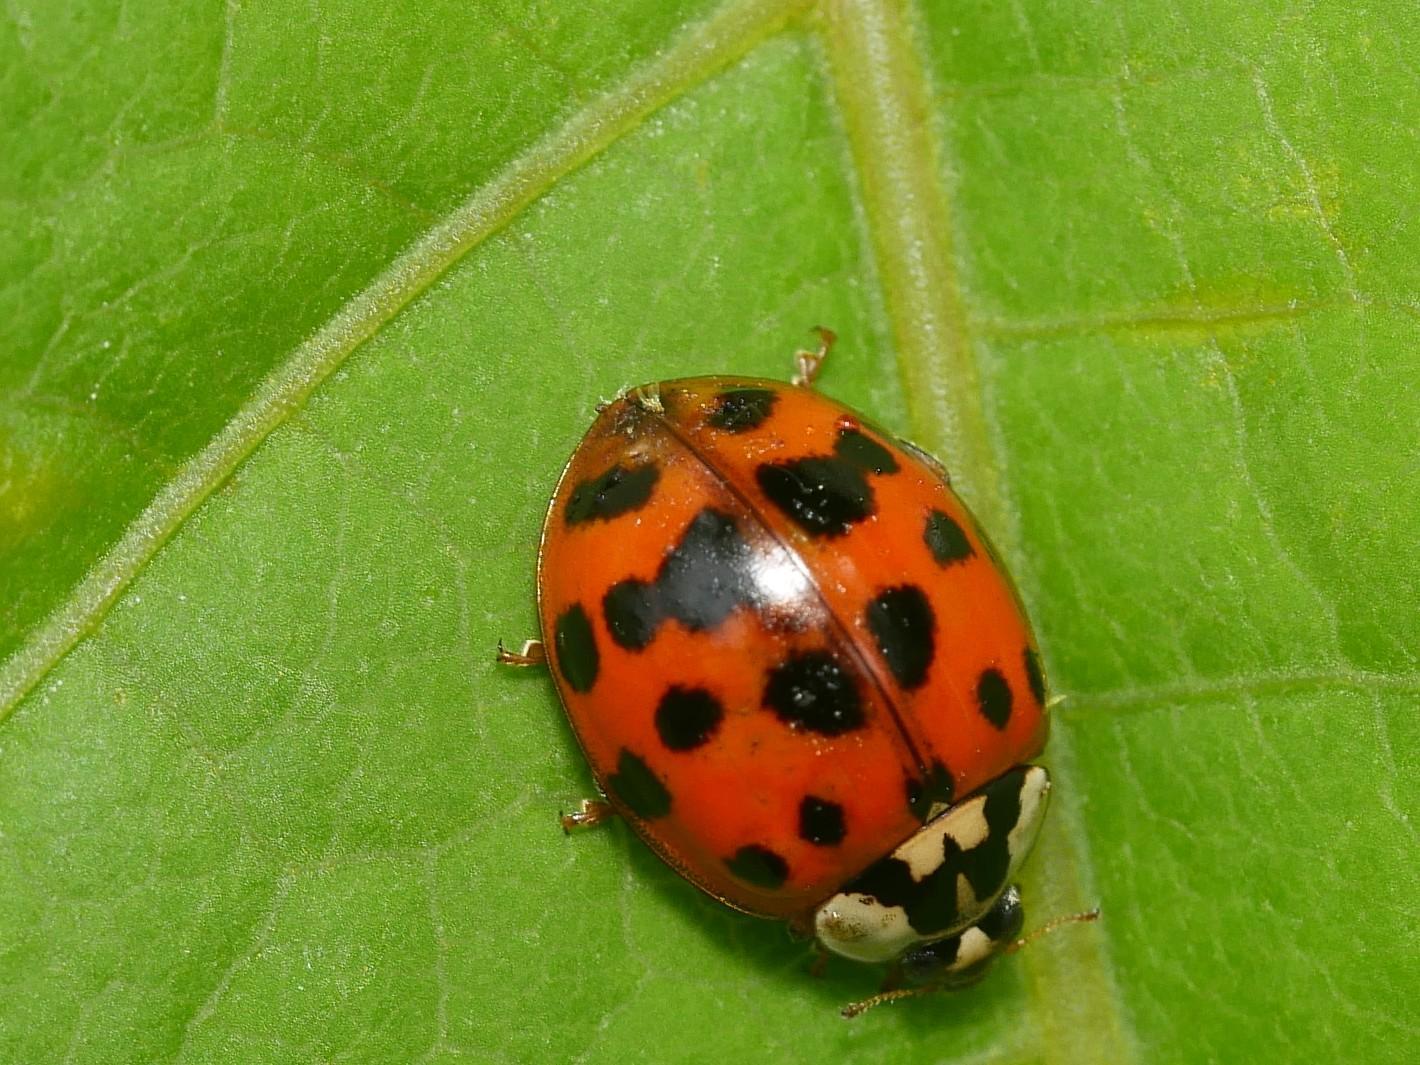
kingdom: Fungi
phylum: Ascomycota
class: Laboulbeniomycetes
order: Laboulbeniales
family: Laboulbeniaceae
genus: Hesperomyces
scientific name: Hesperomyces harmoniae
